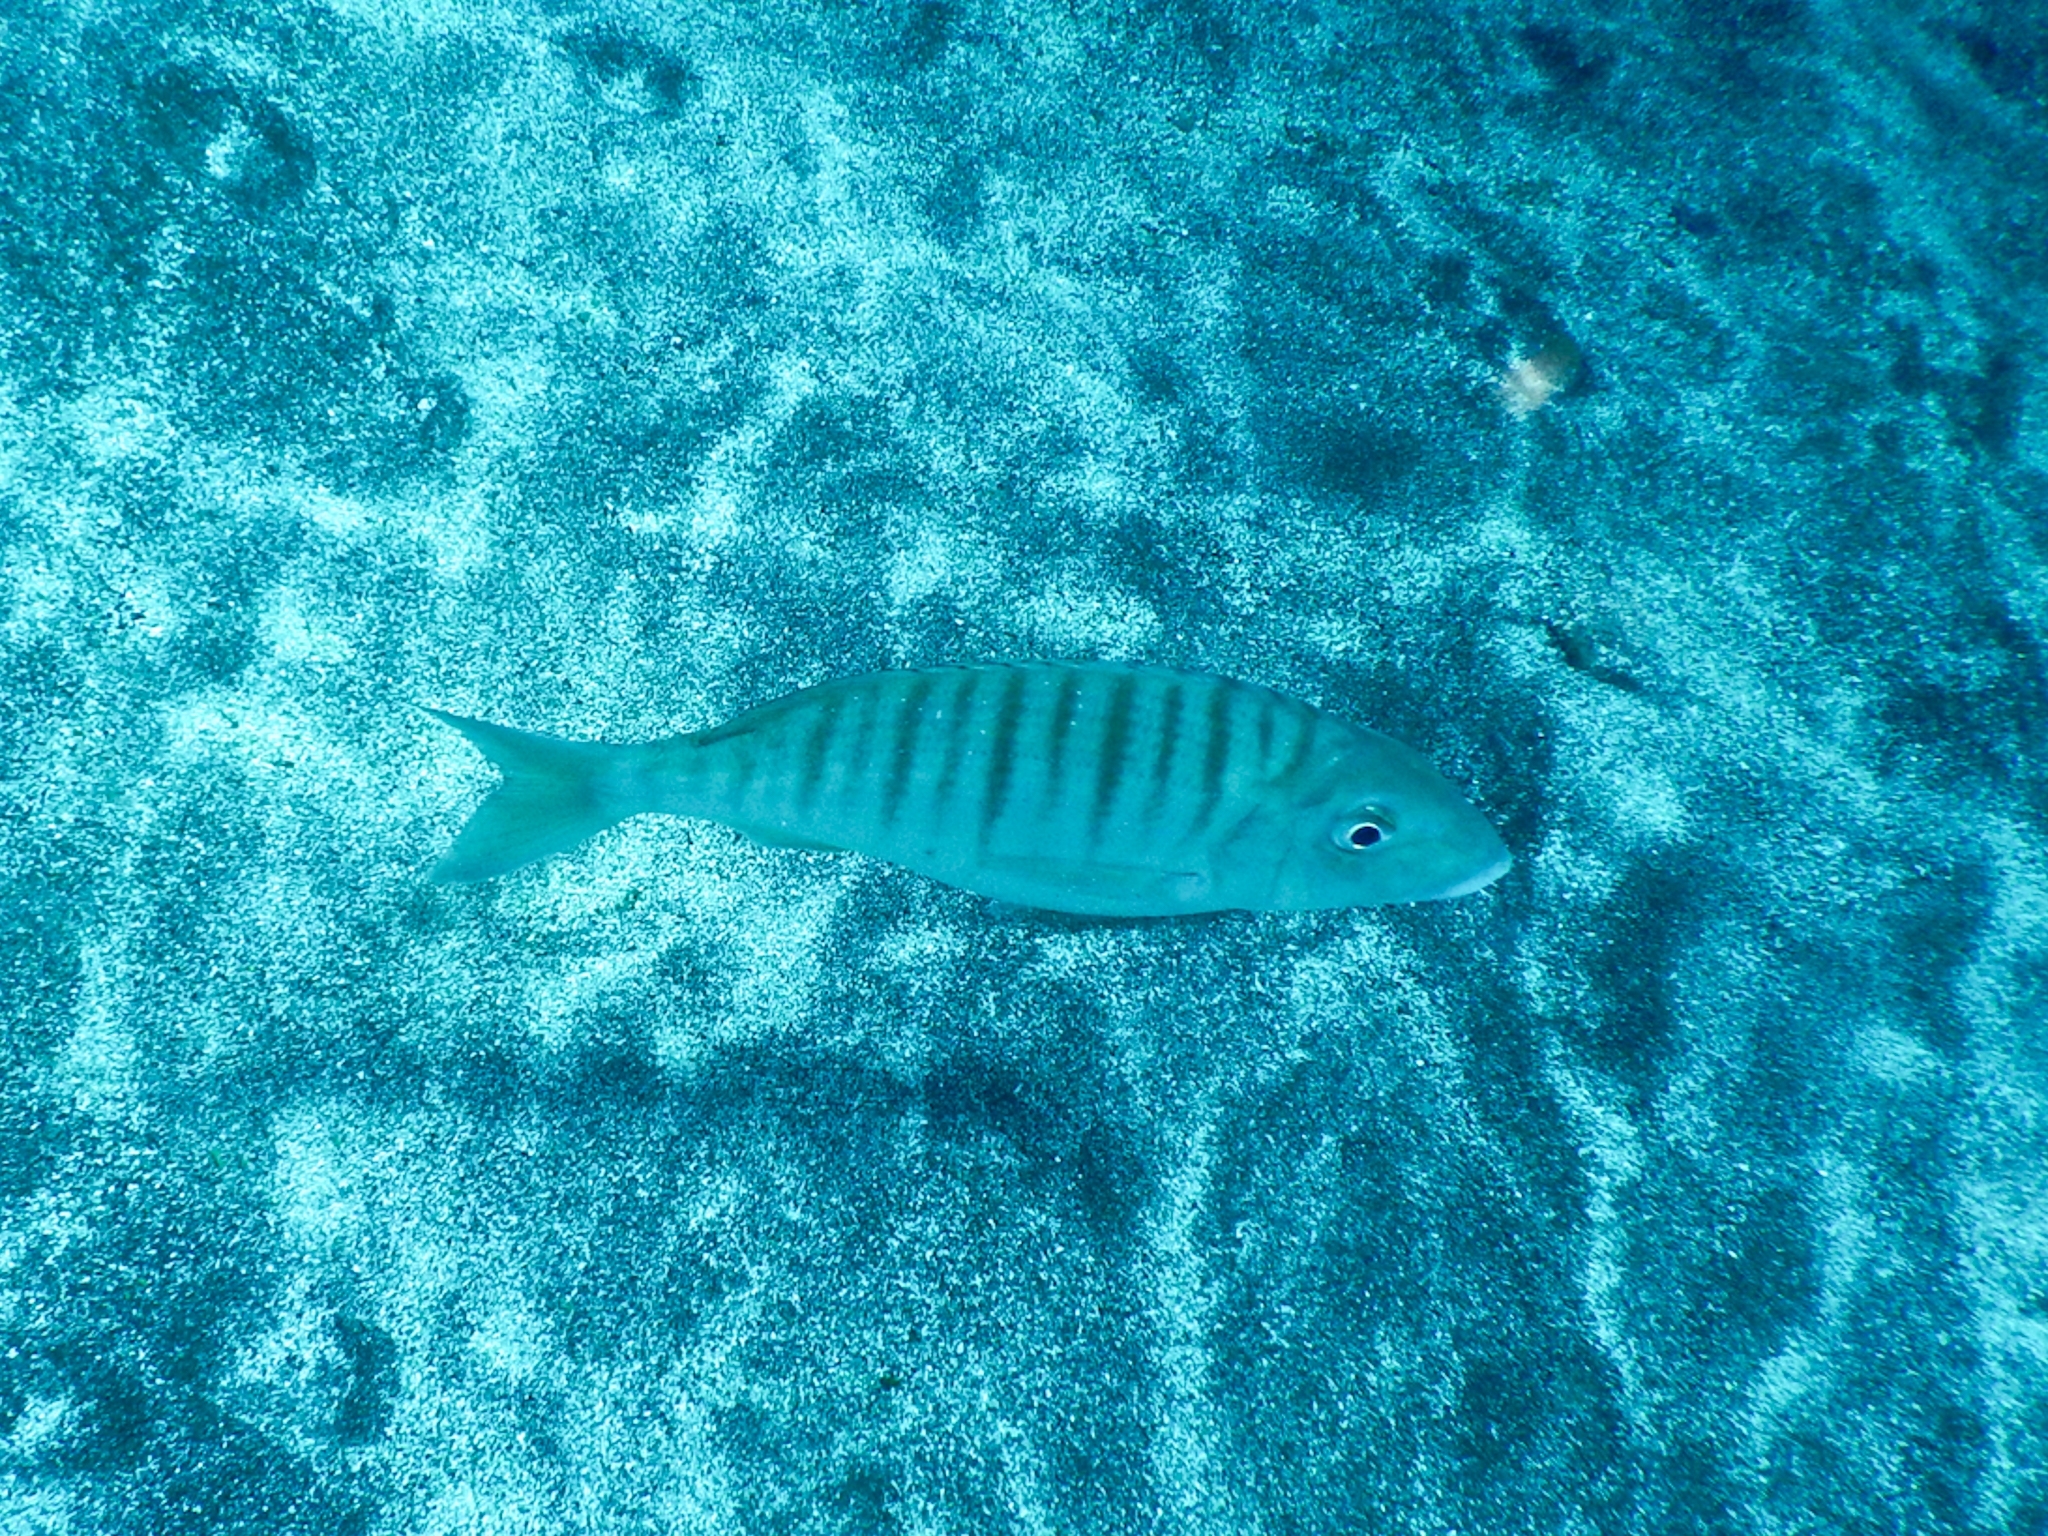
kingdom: Animalia
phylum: Chordata
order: Perciformes
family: Sparidae
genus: Lithognathus
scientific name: Lithognathus mormyrus
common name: Sand steenbras
